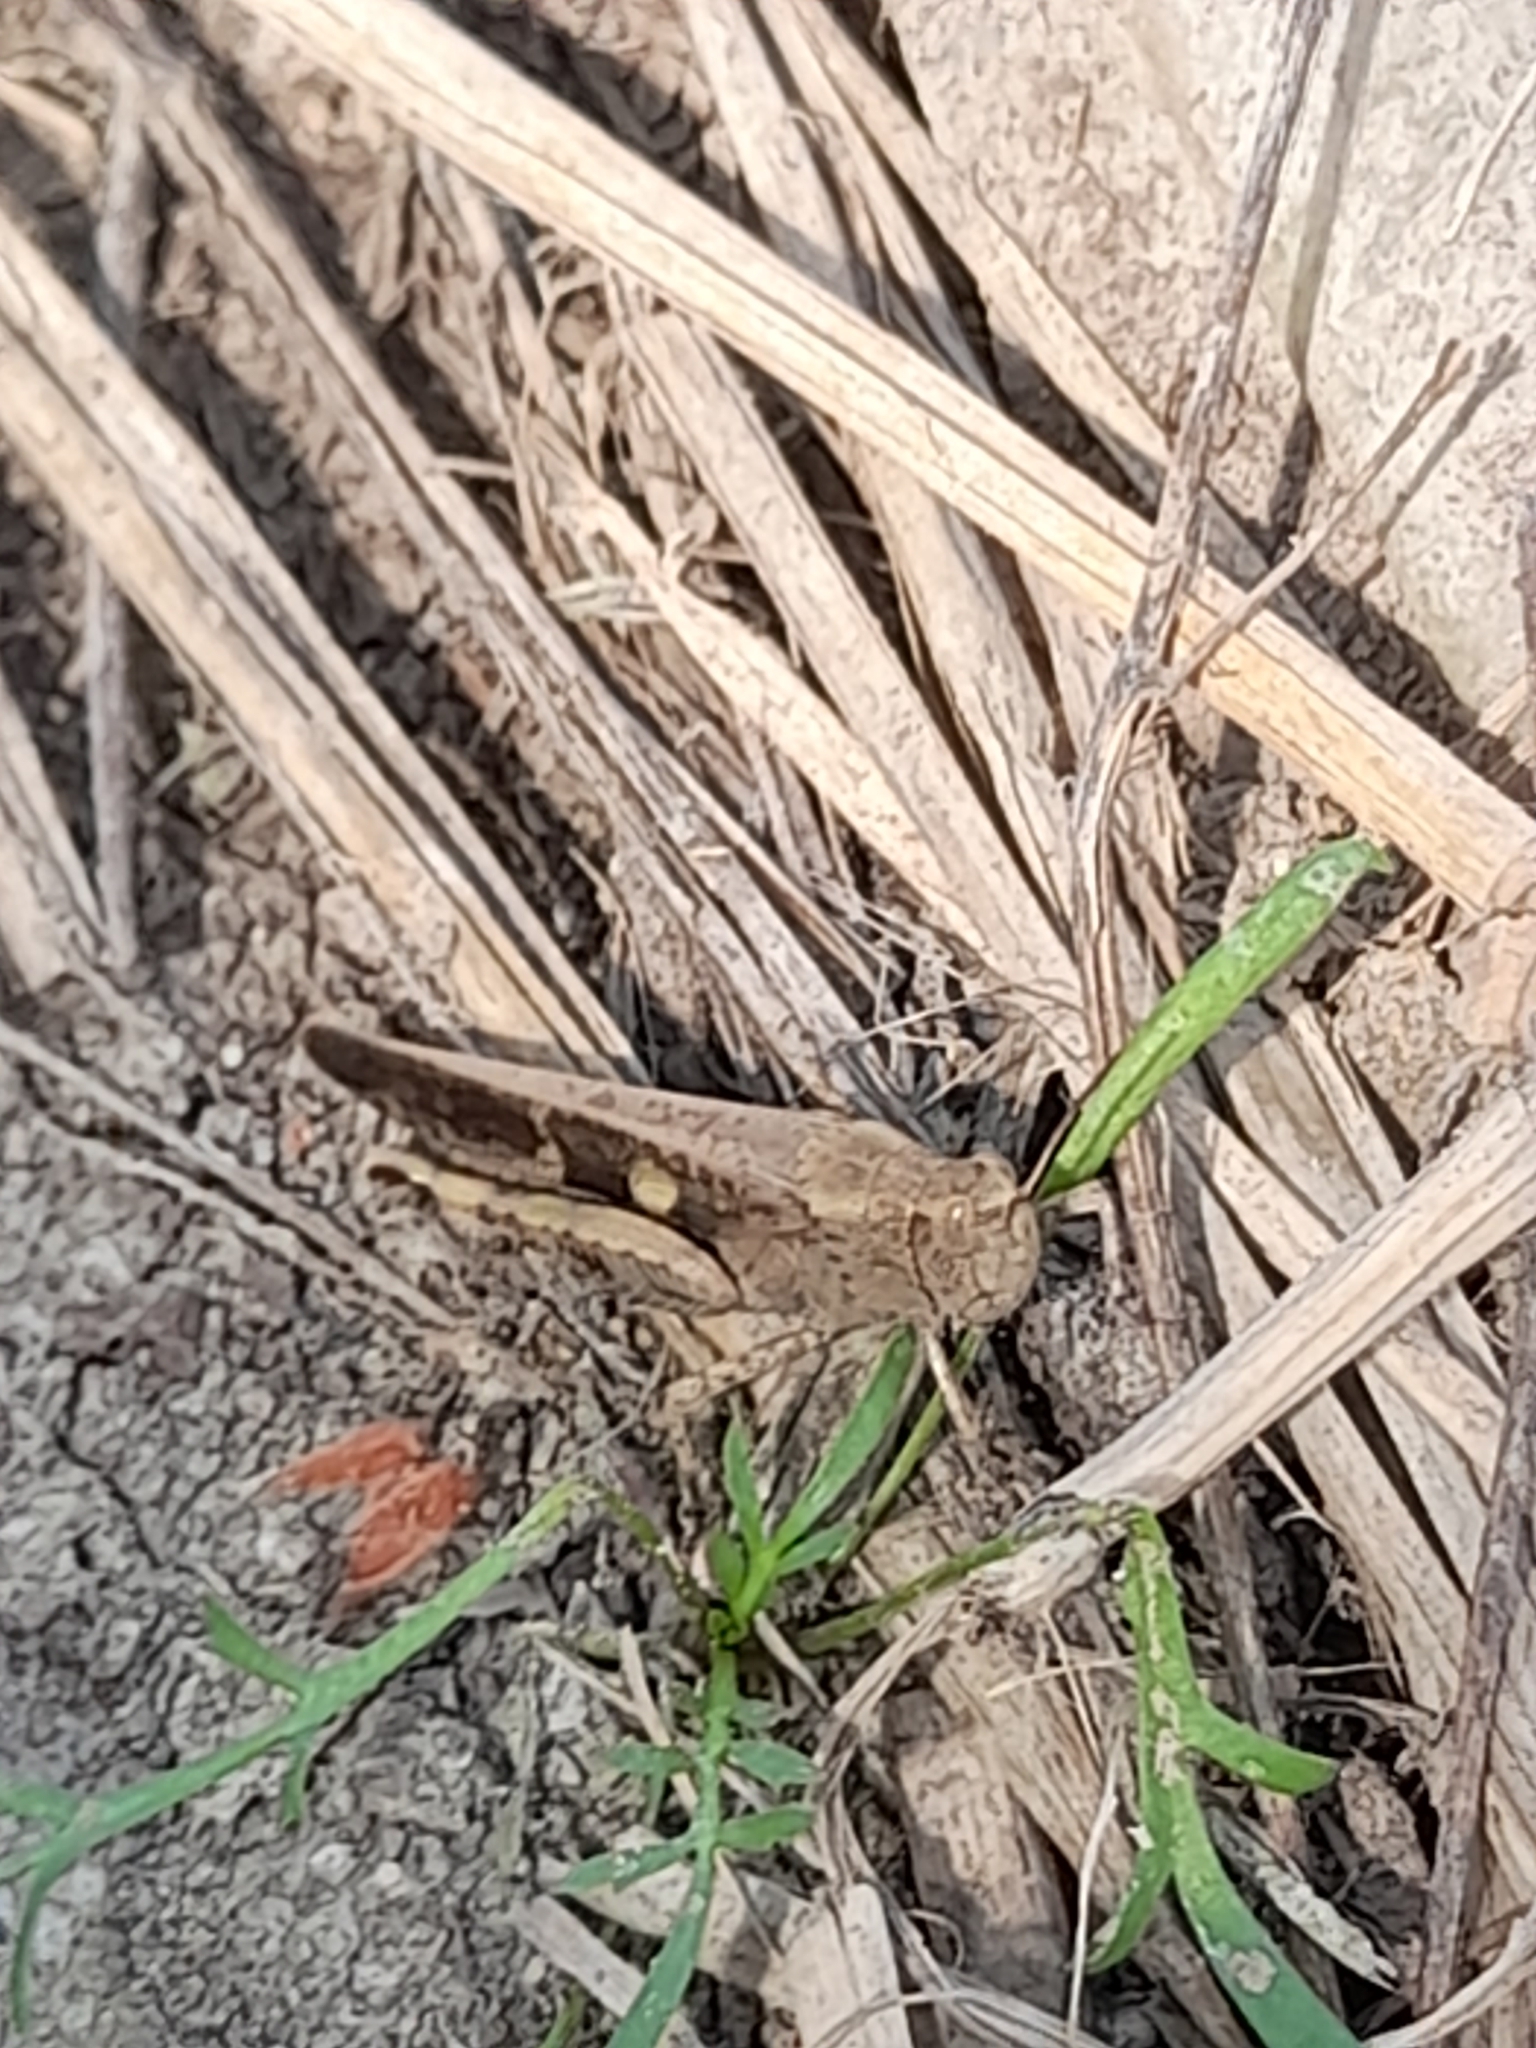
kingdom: Animalia
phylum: Arthropoda
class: Insecta
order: Orthoptera
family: Acrididae
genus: Aiolopus
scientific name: Aiolopus strepens
